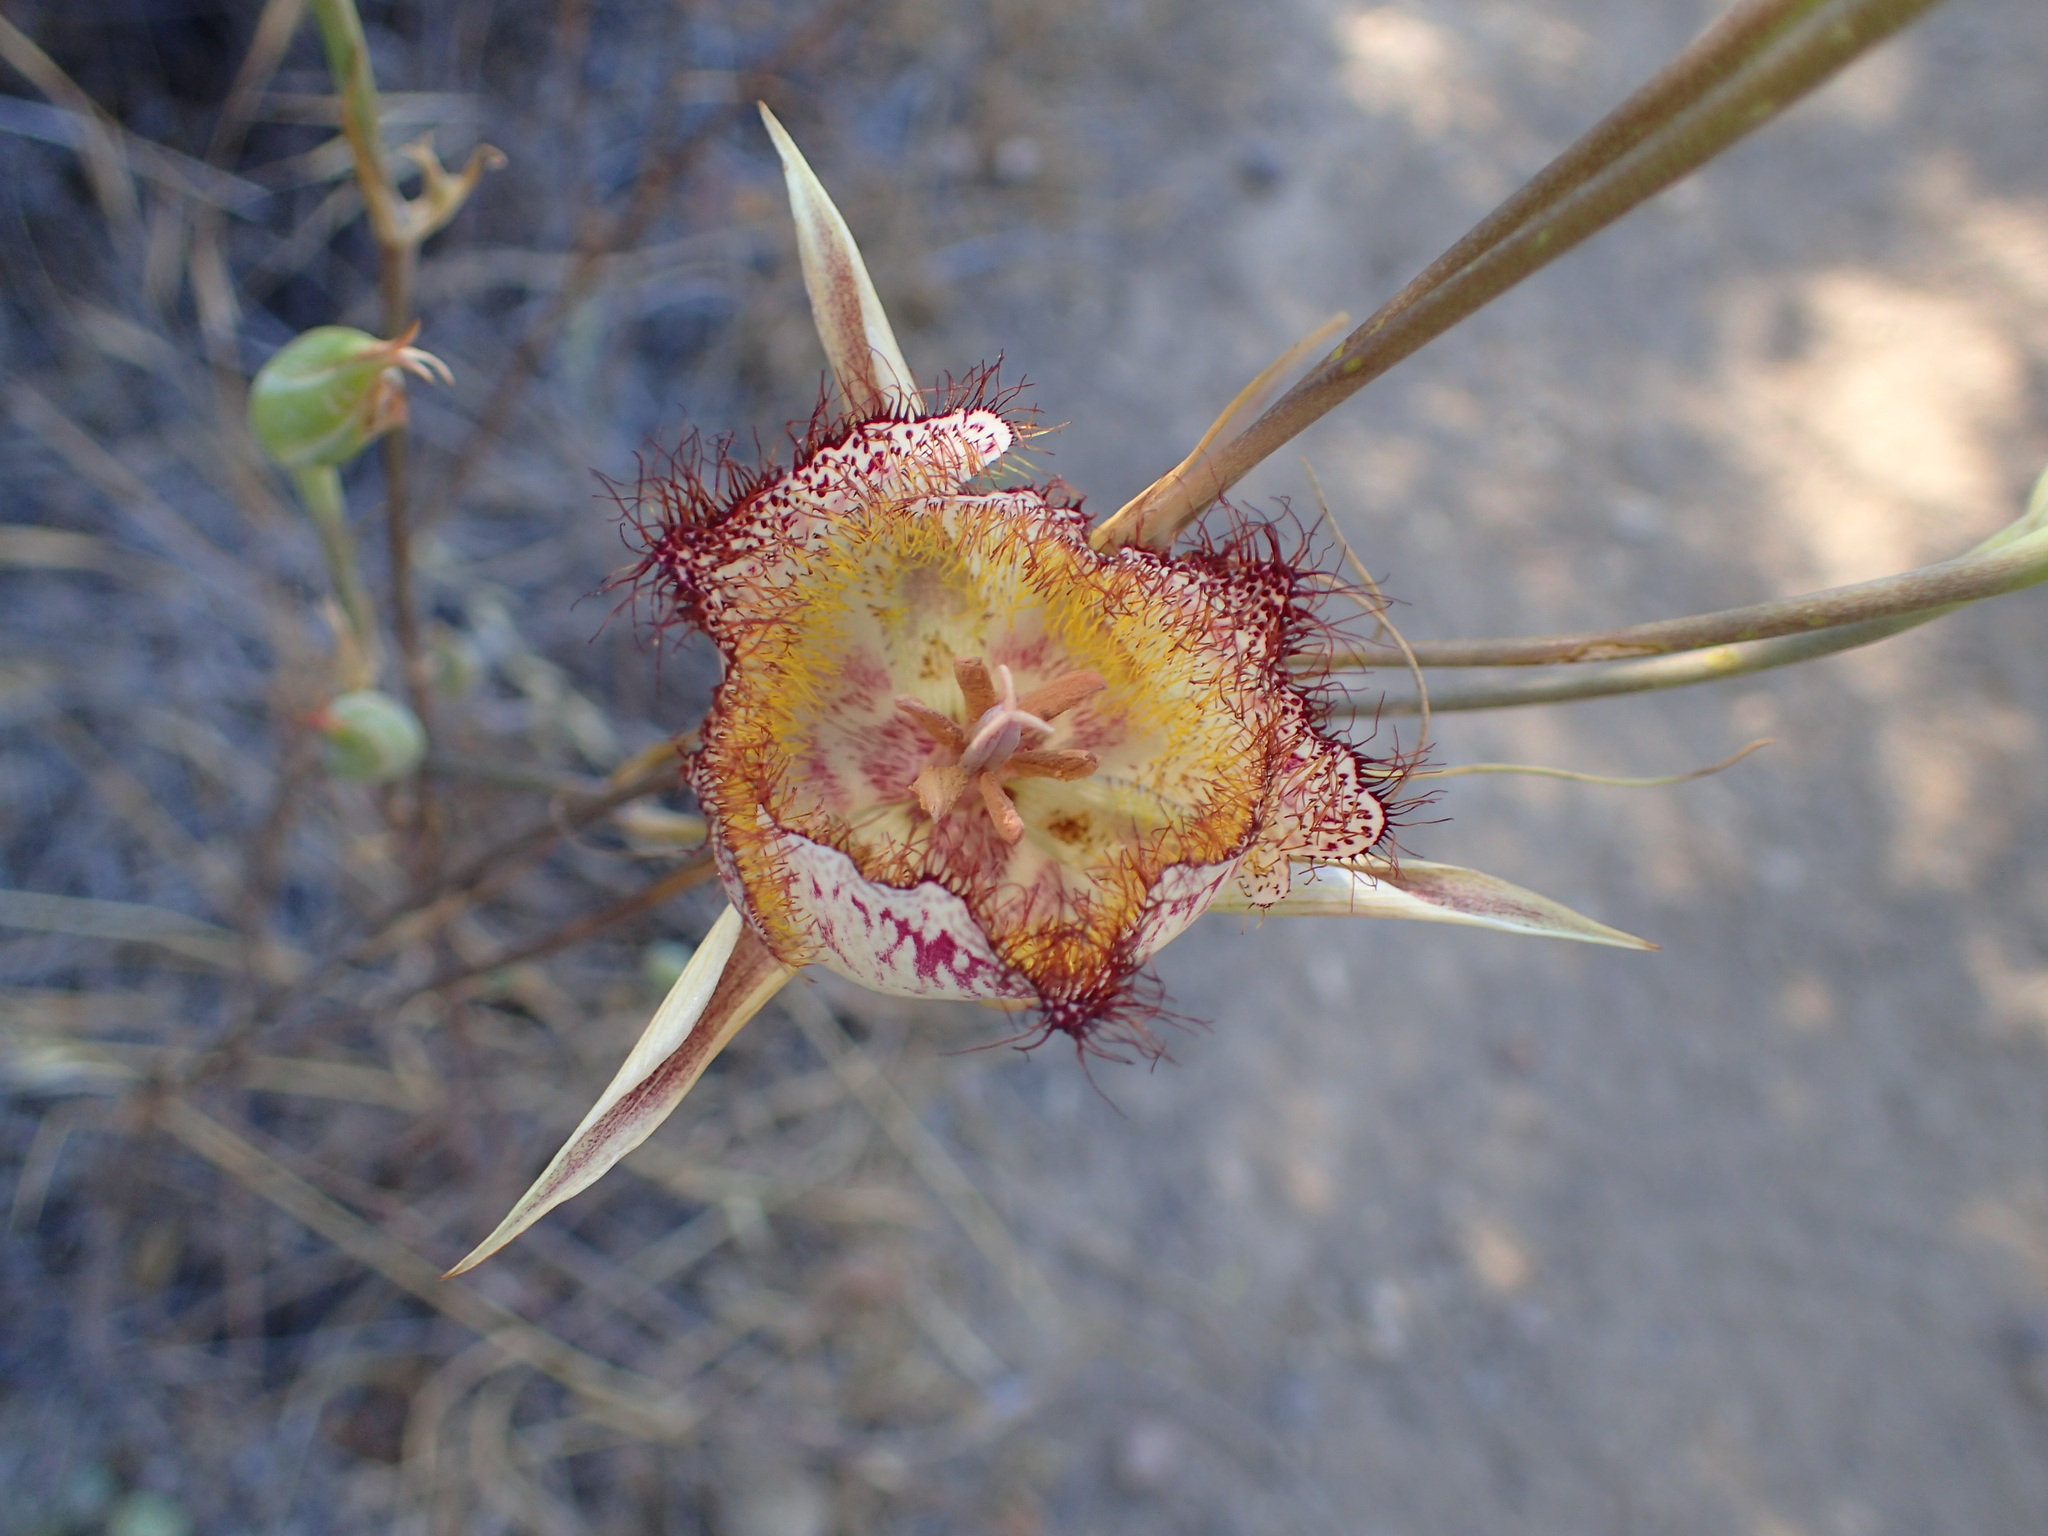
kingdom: Plantae
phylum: Tracheophyta
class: Liliopsida
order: Liliales
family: Liliaceae
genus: Calochortus
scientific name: Calochortus fimbriatus
